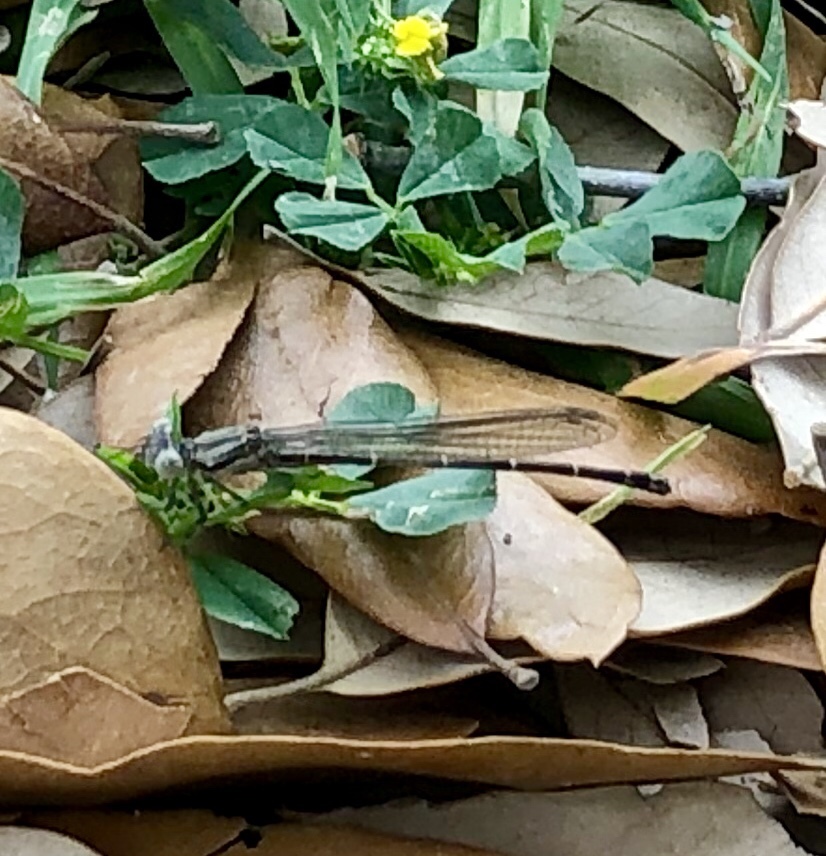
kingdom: Animalia
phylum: Arthropoda
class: Insecta
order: Odonata
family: Coenagrionidae
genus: Argia
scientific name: Argia translata
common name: Dusky dancer
